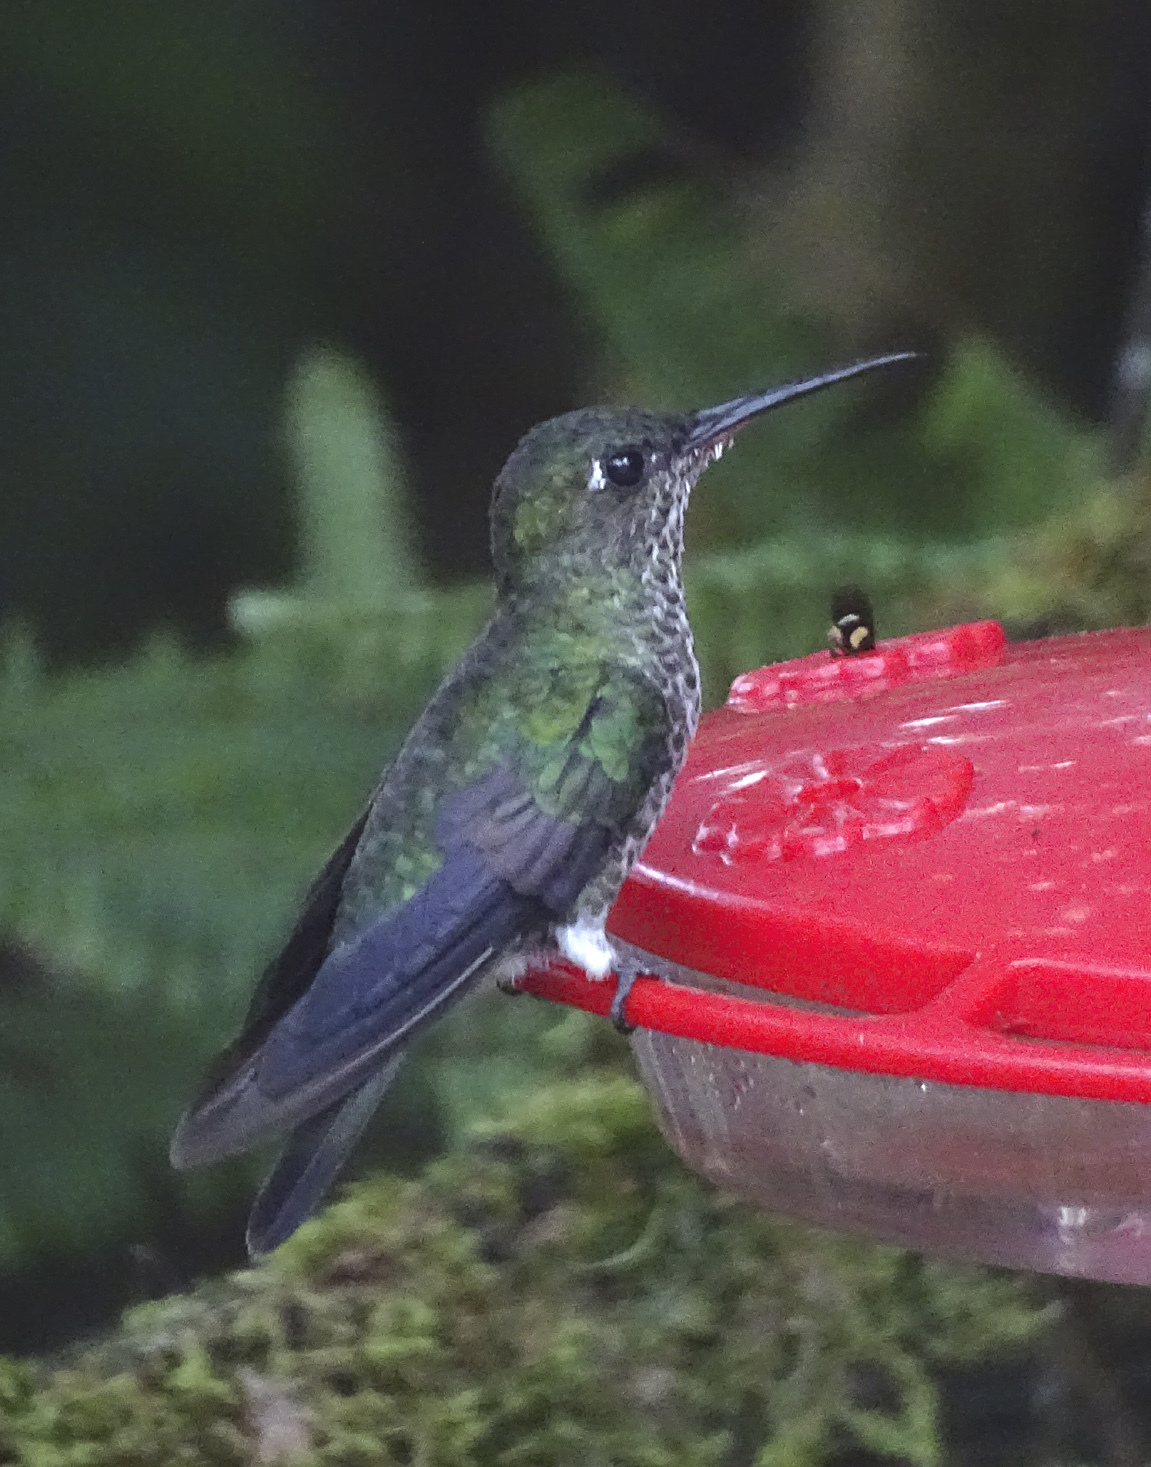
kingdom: Animalia
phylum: Chordata
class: Aves
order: Apodiformes
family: Trochilidae
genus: Taphrospilus
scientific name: Taphrospilus hypostictus
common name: Many-spotted hummingbird
